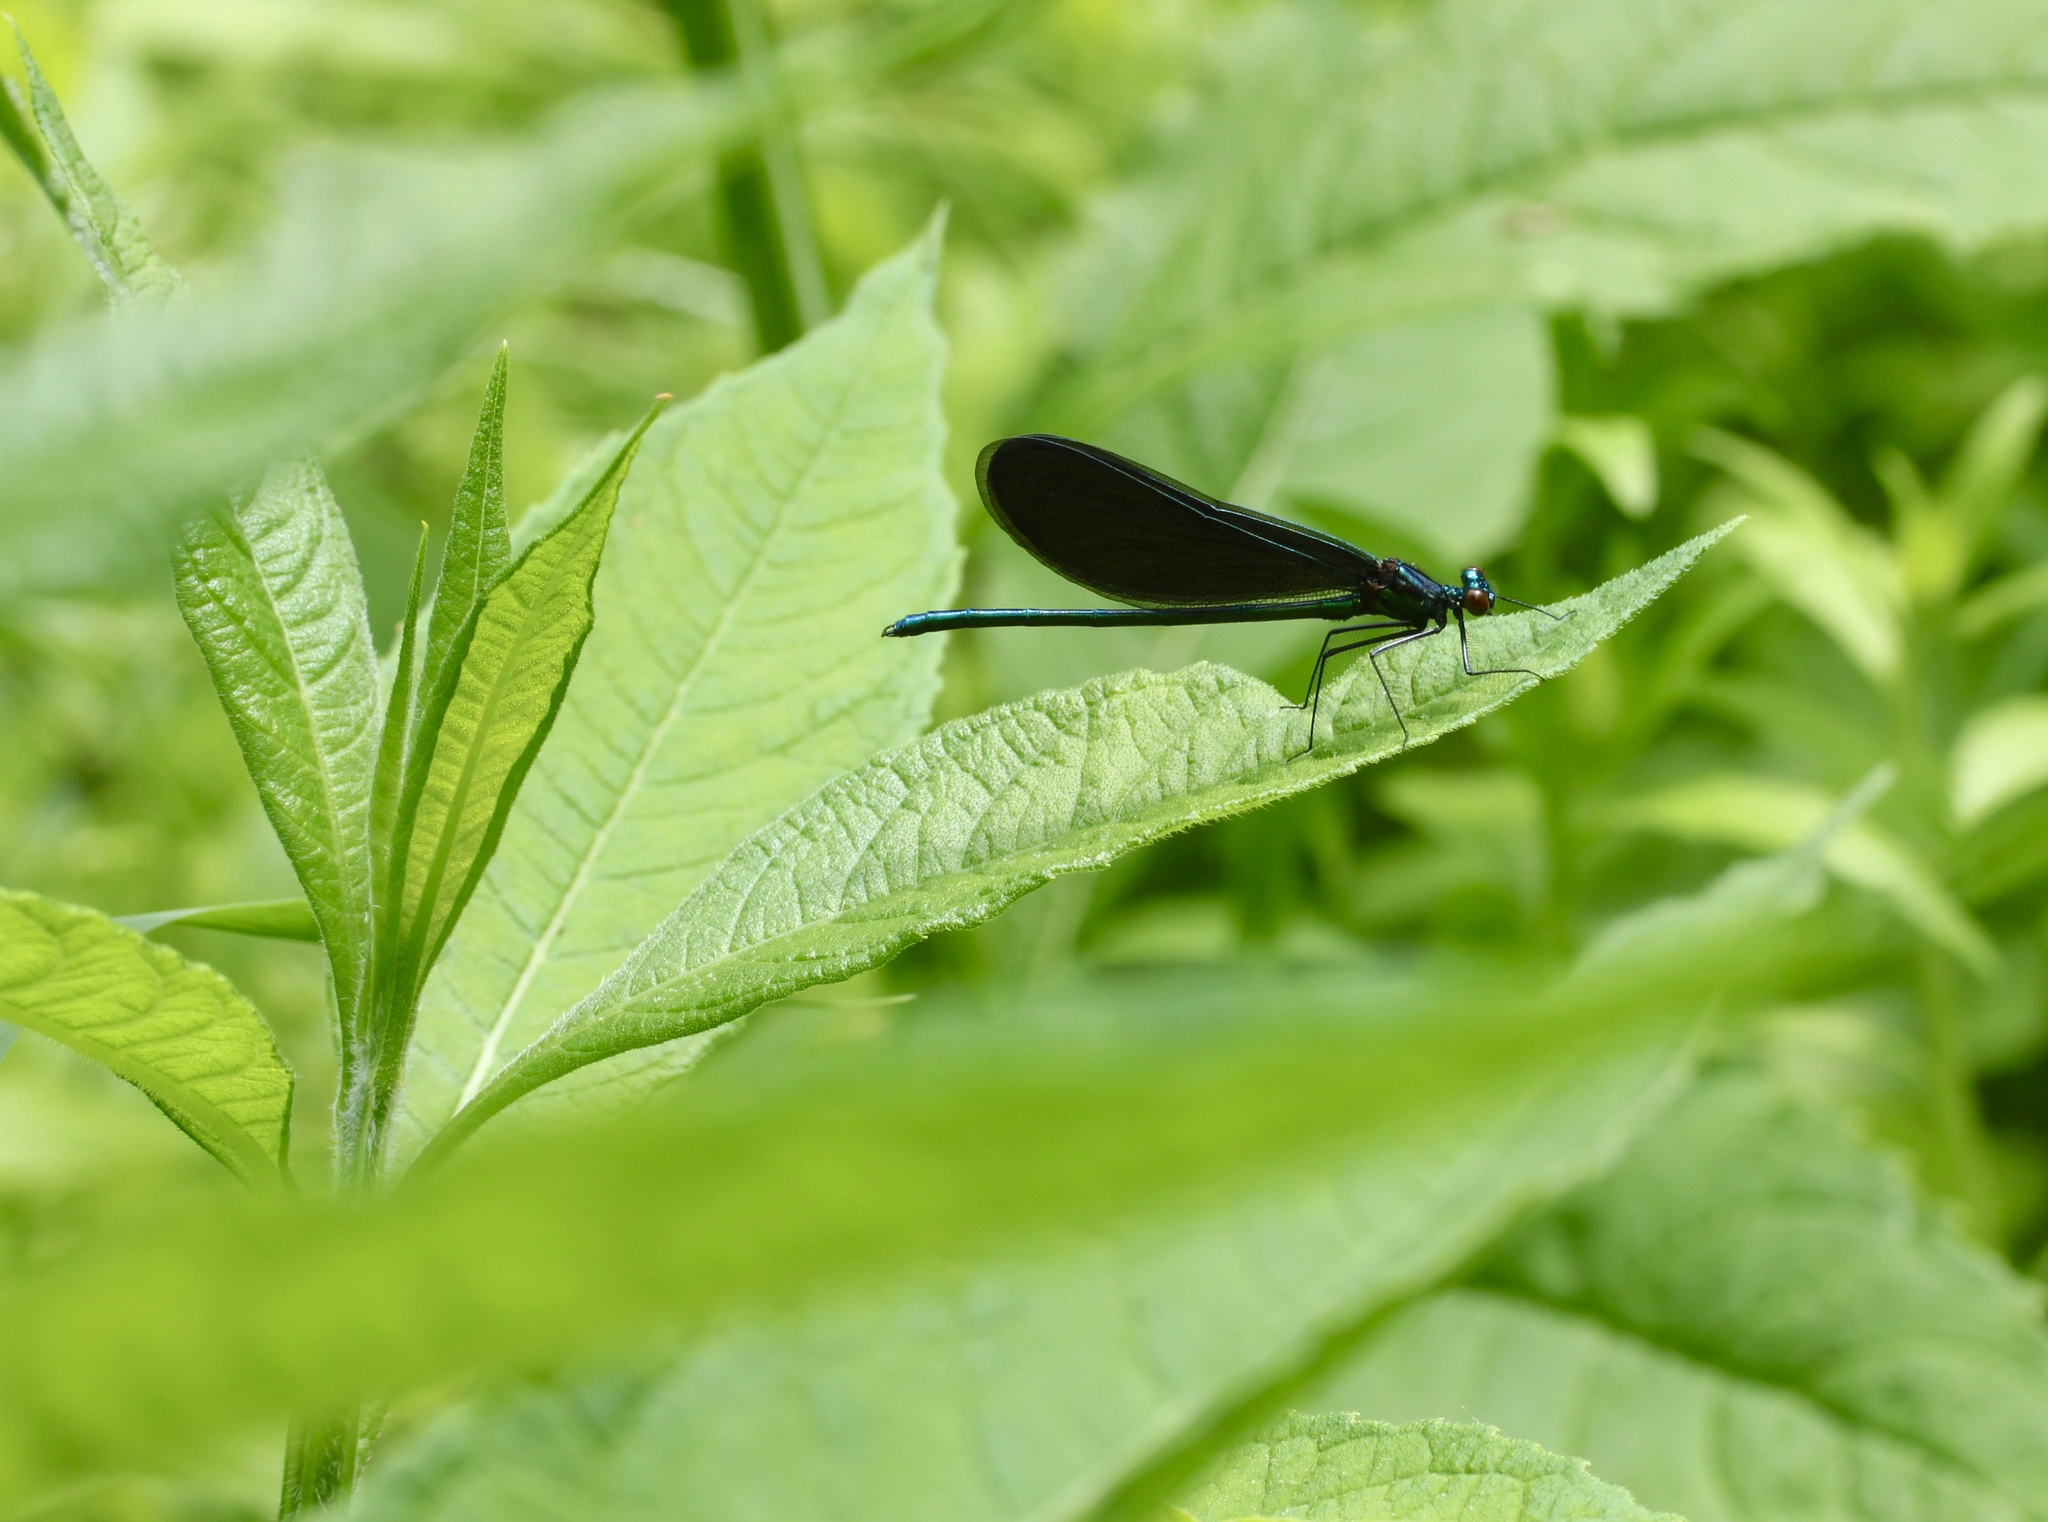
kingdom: Animalia
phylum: Arthropoda
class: Insecta
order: Odonata
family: Calopterygidae
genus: Calopteryx
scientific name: Calopteryx maculata
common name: Ebony jewelwing
